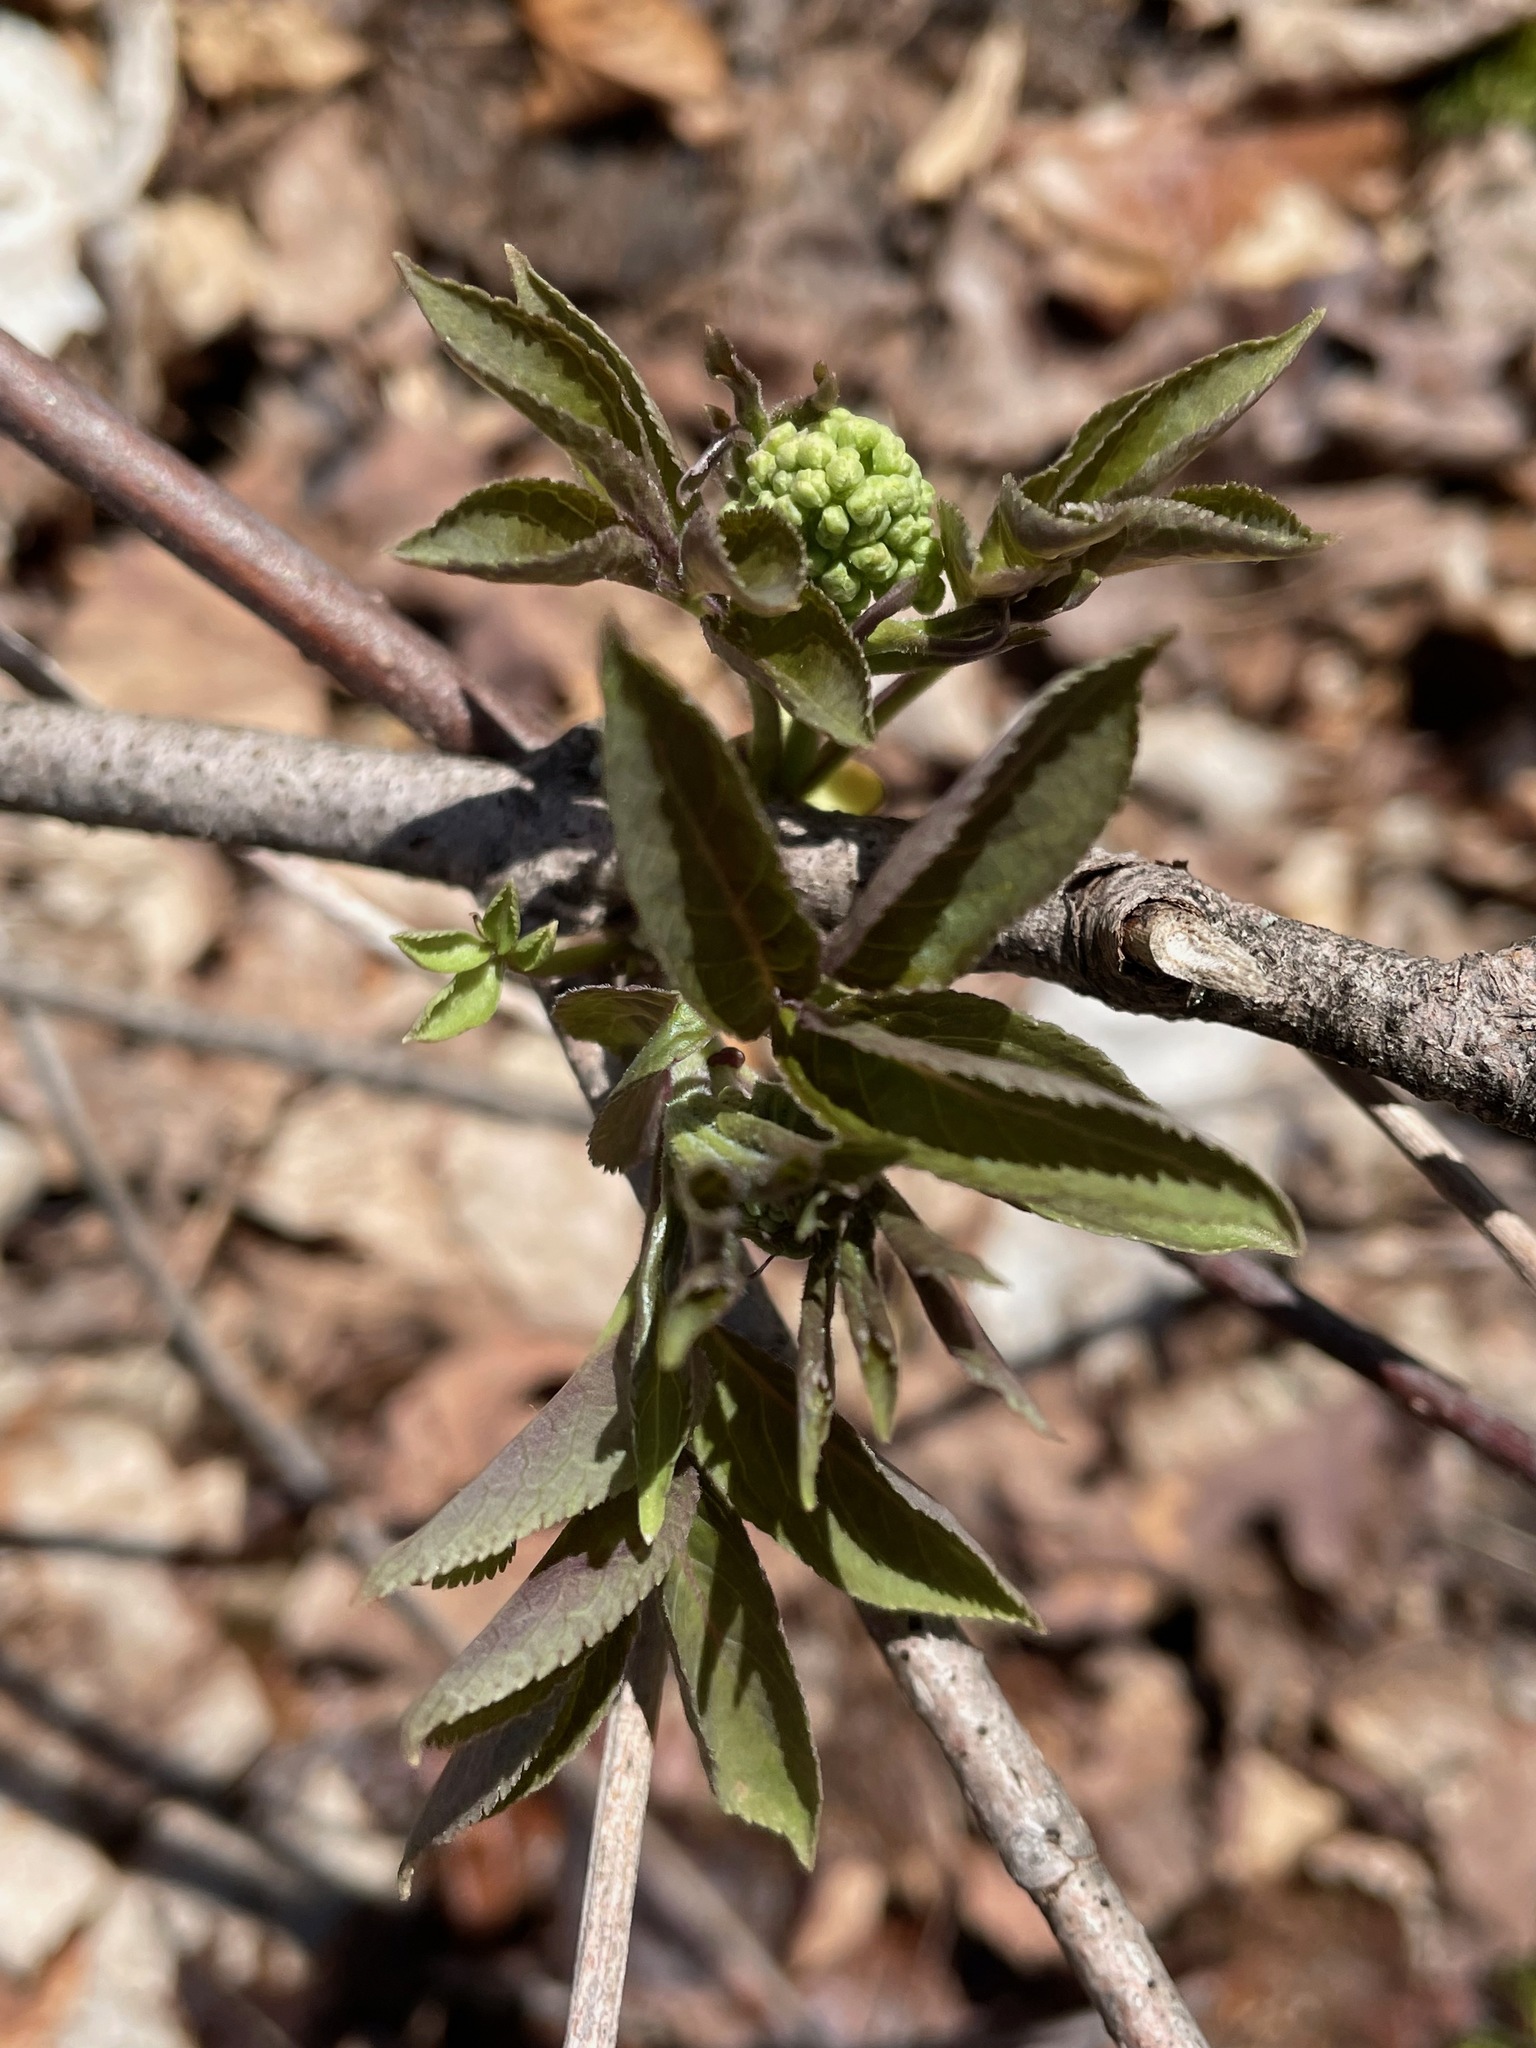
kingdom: Plantae
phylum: Tracheophyta
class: Magnoliopsida
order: Dipsacales
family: Viburnaceae
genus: Sambucus
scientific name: Sambucus racemosa
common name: Red-berried elder
